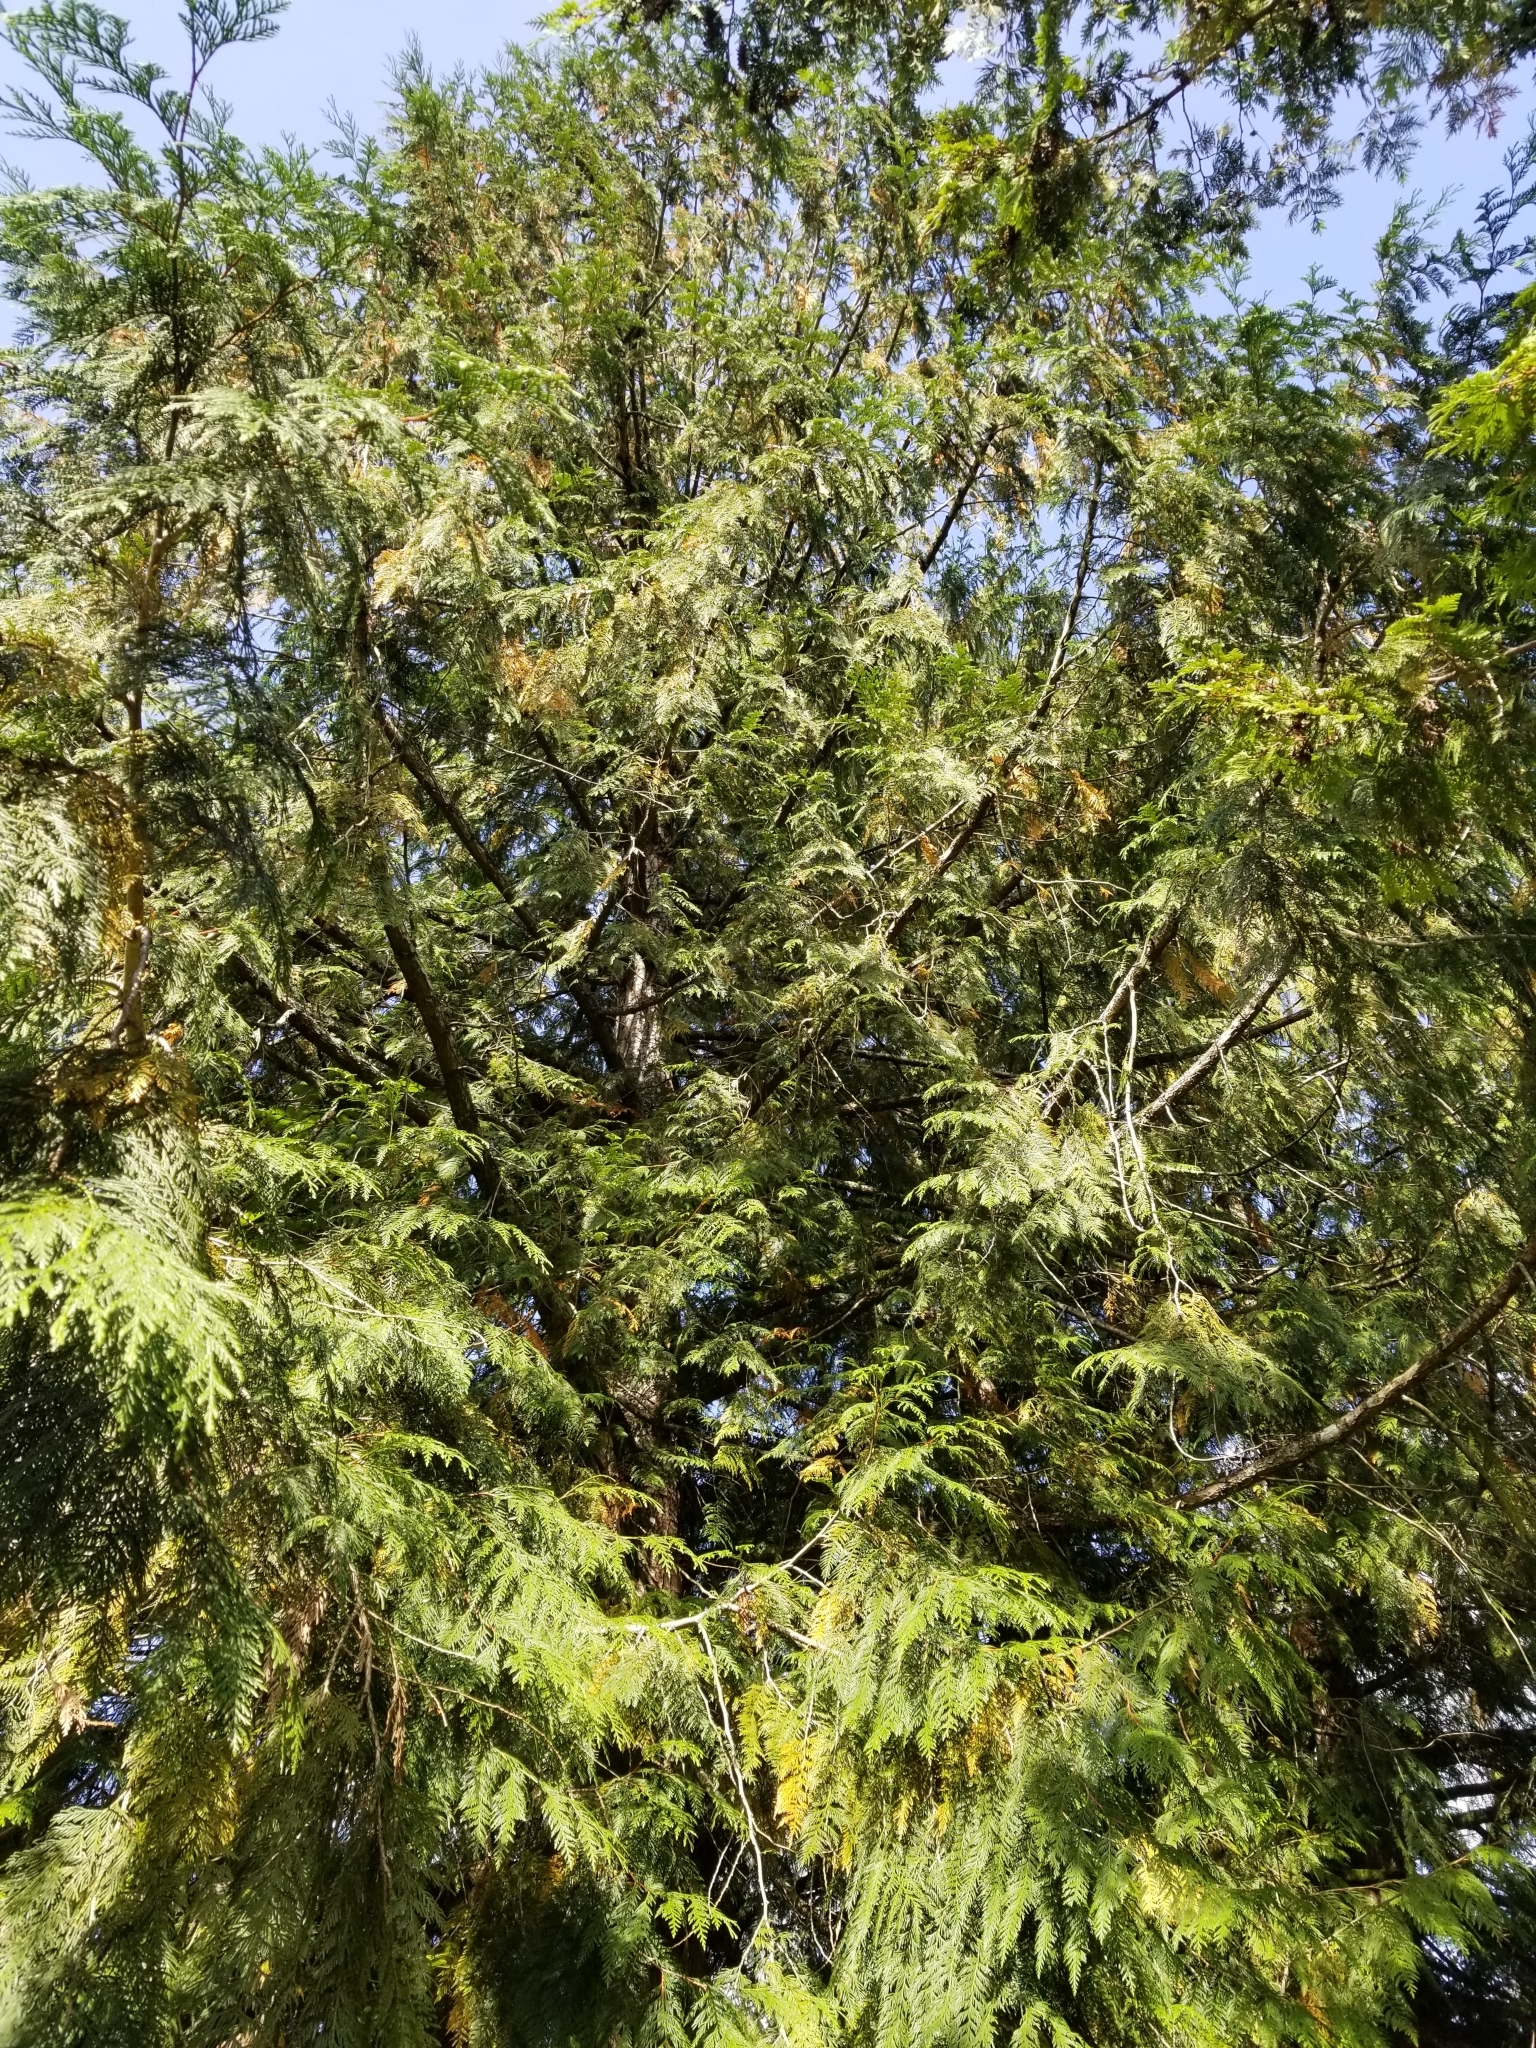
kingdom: Plantae
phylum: Tracheophyta
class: Pinopsida
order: Pinales
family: Cupressaceae
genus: Thuja
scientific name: Thuja plicata
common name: Western red-cedar
